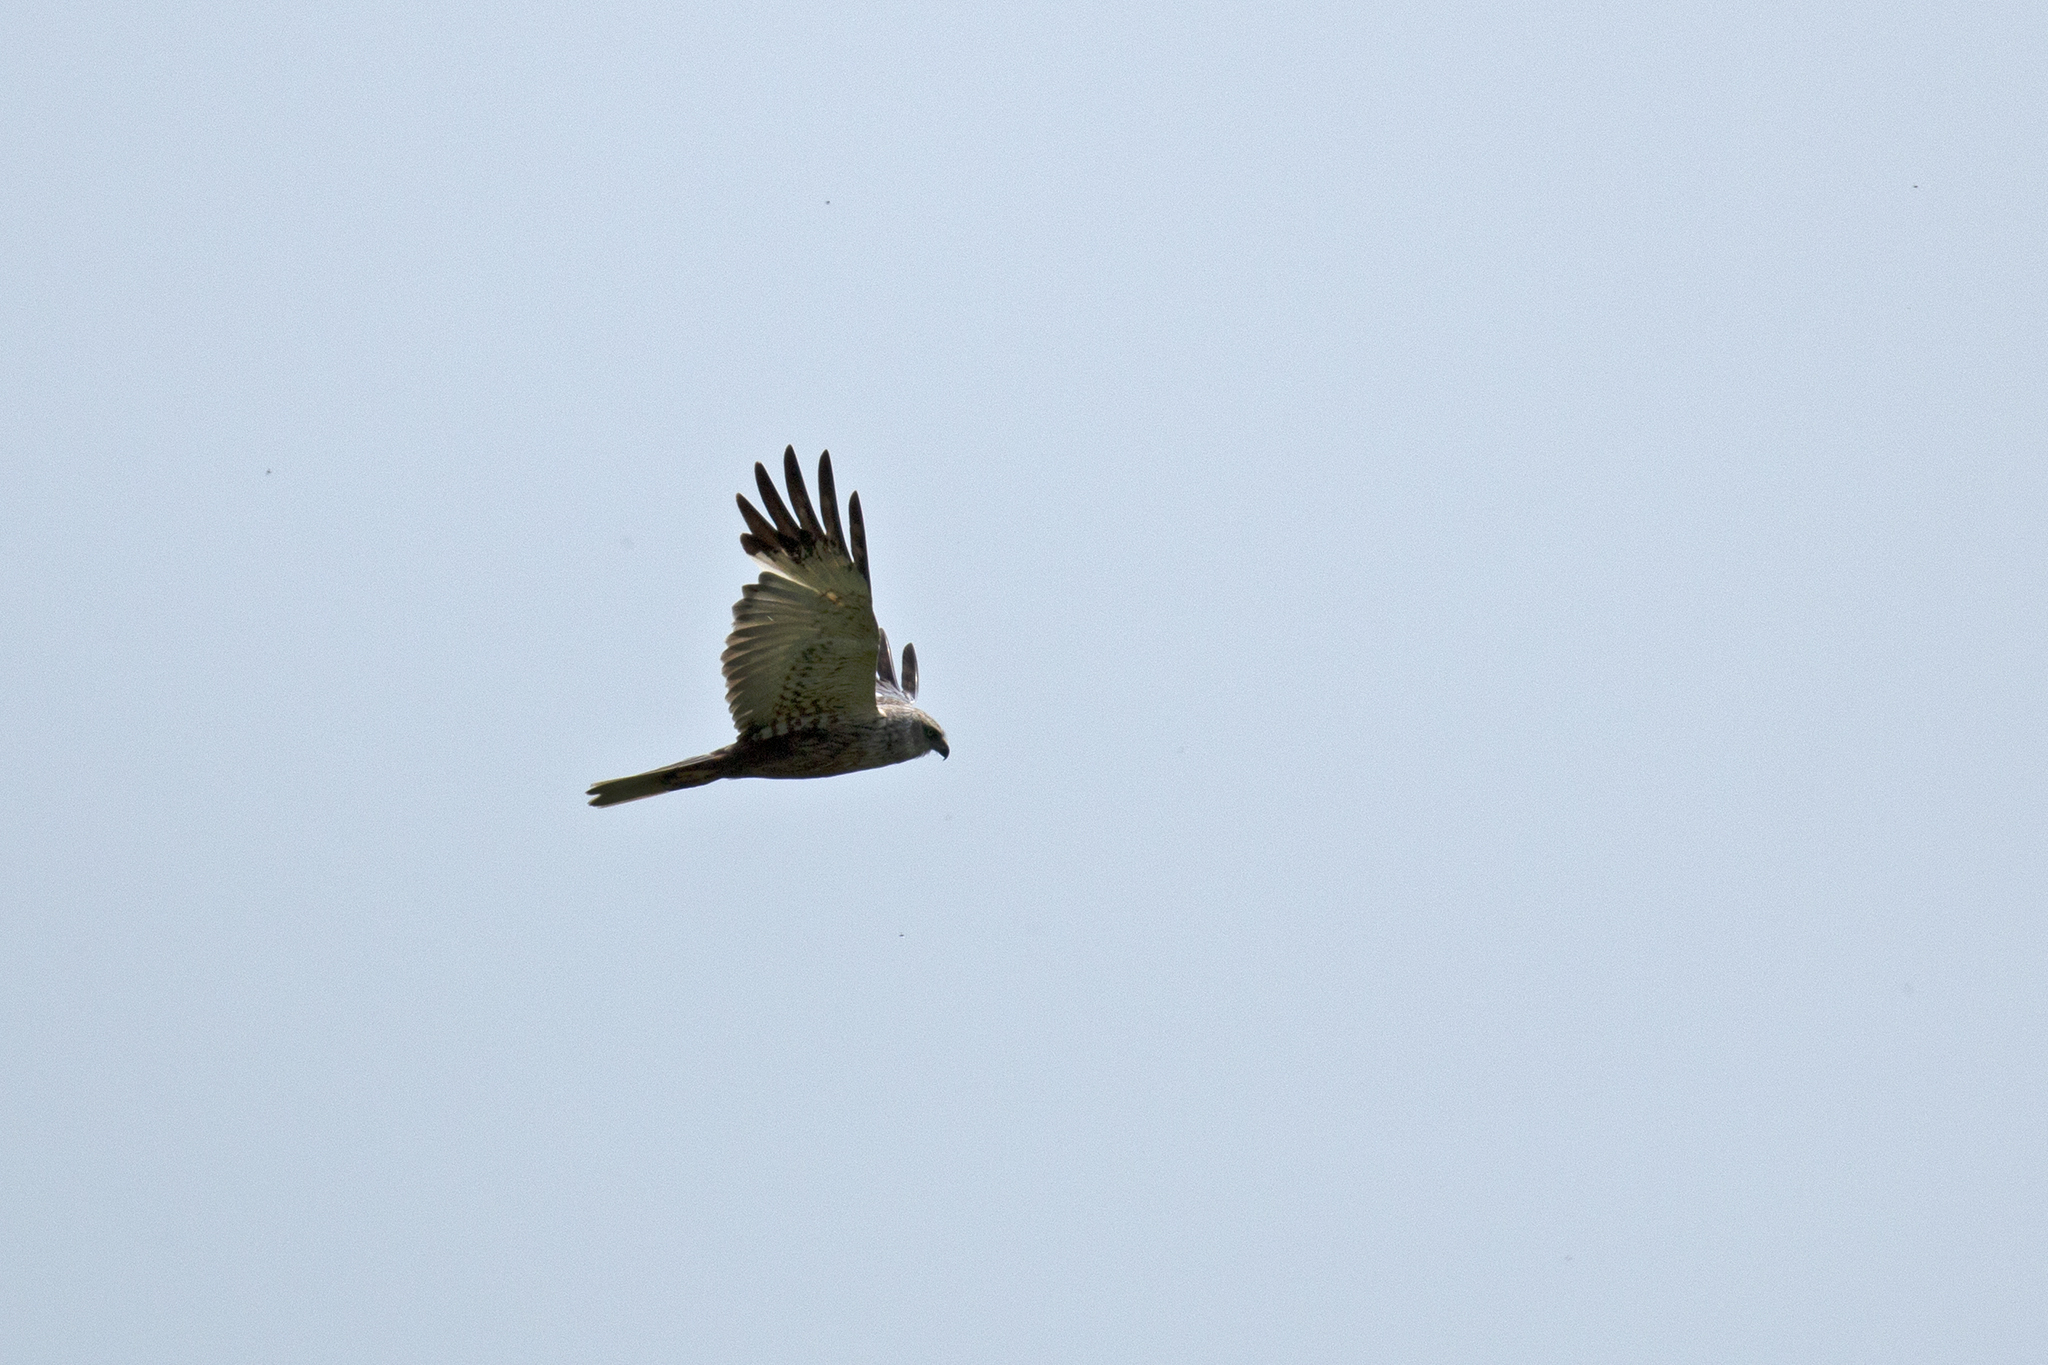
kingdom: Animalia
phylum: Chordata
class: Aves
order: Accipitriformes
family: Accipitridae
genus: Circus
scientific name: Circus aeruginosus
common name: Western marsh harrier
